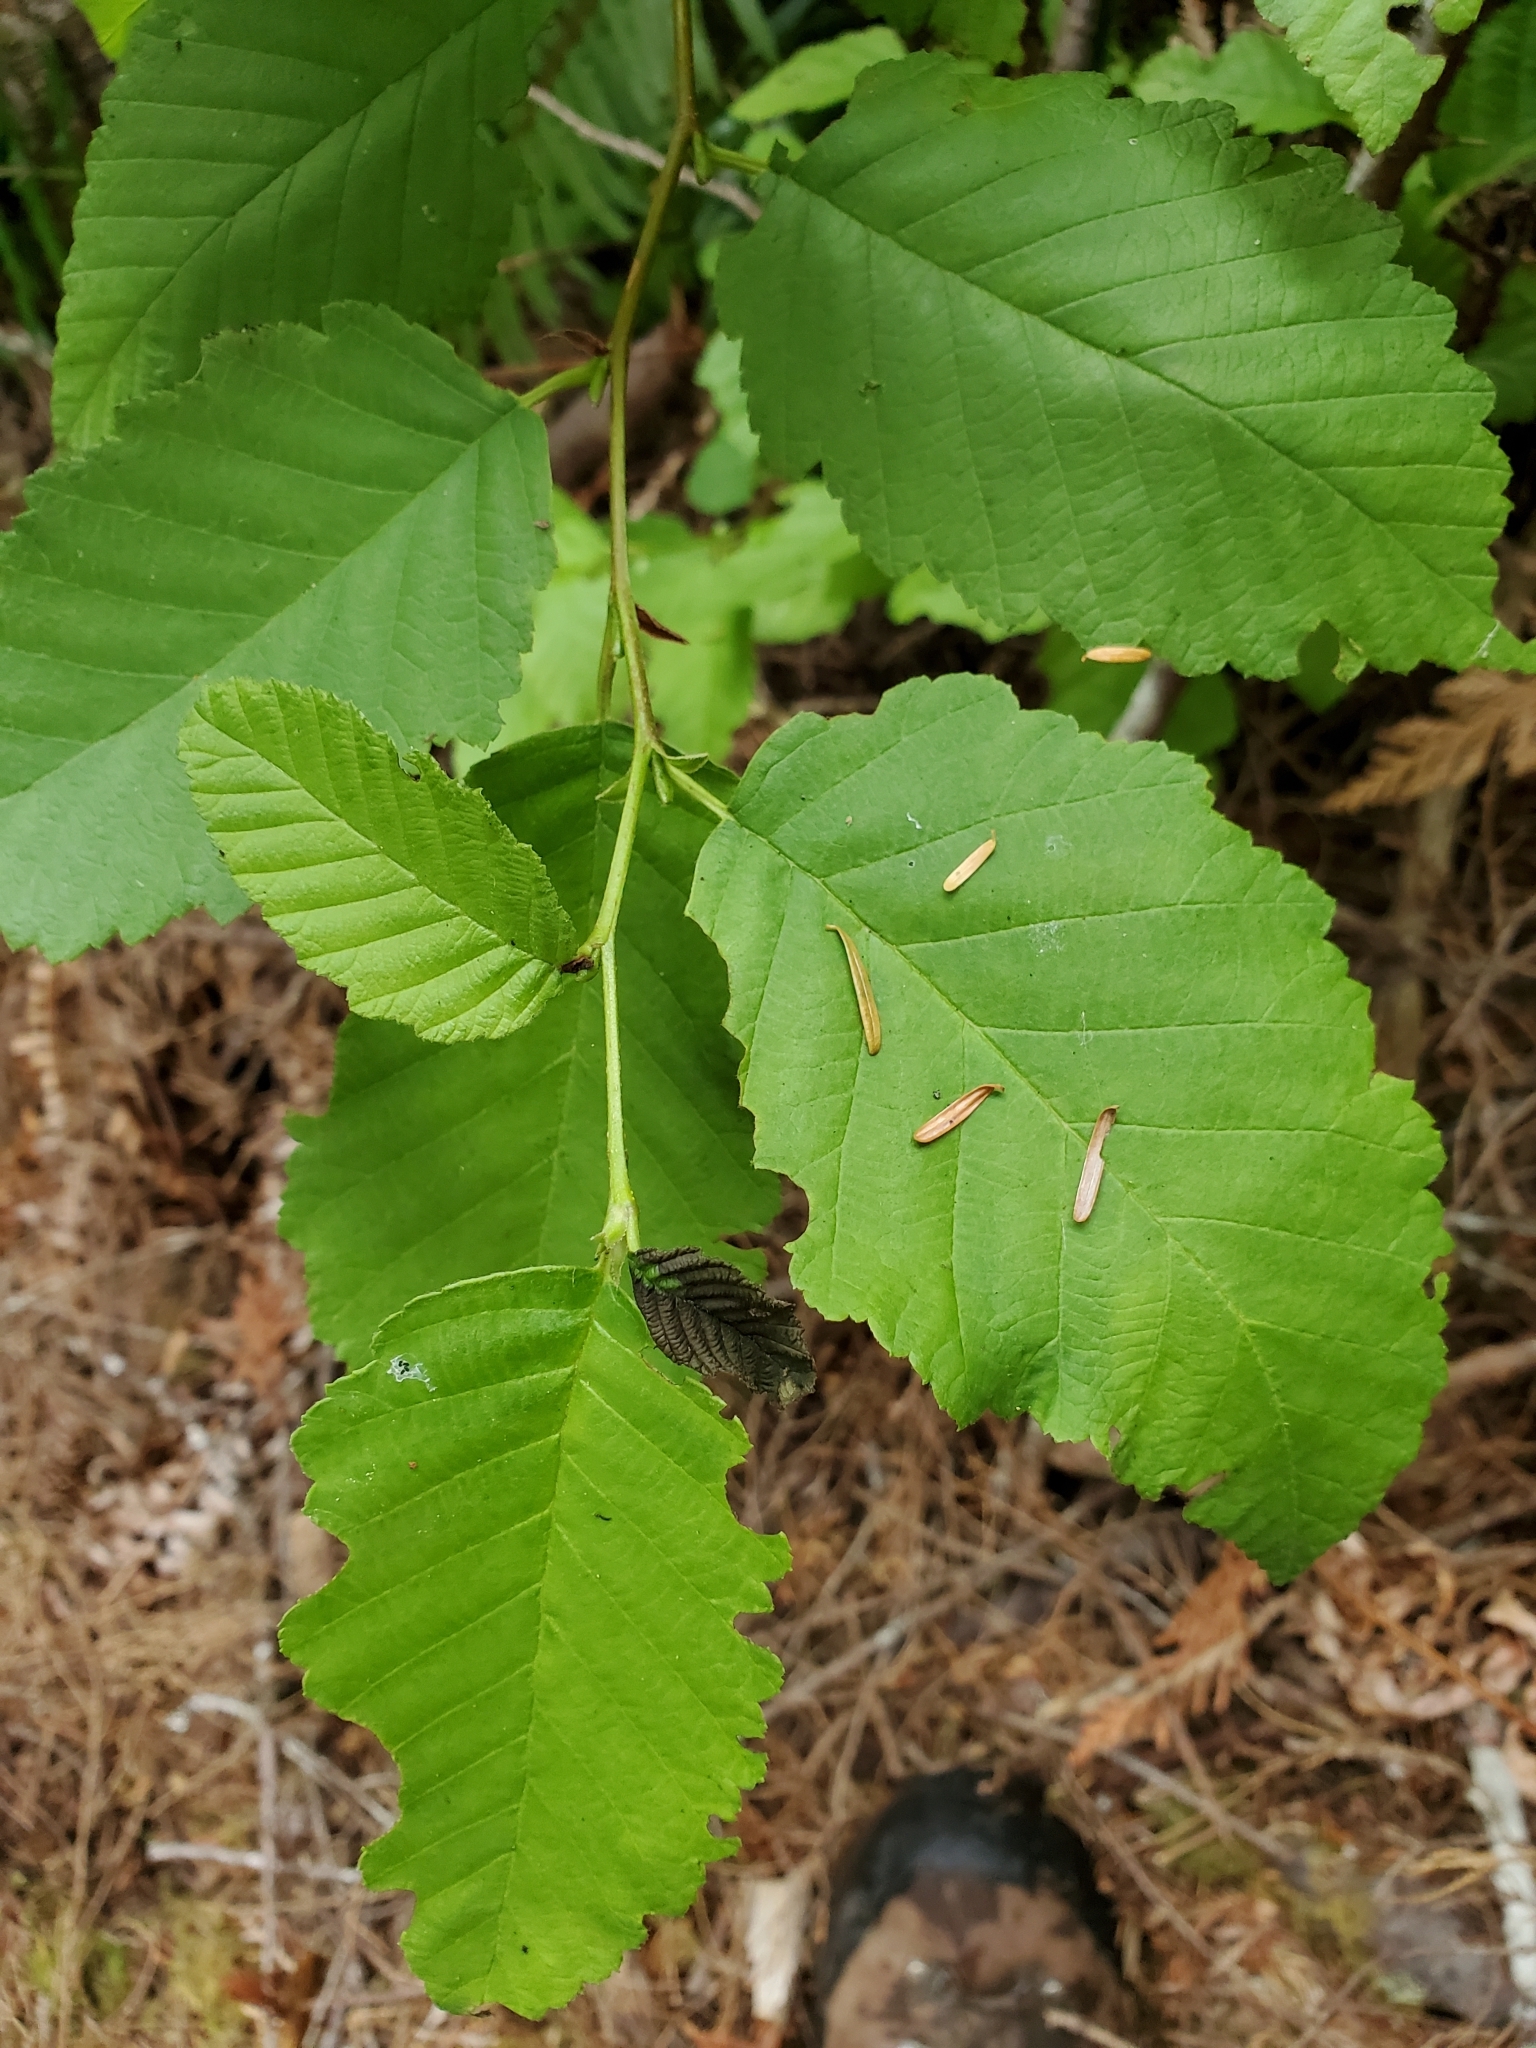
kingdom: Plantae
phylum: Tracheophyta
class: Magnoliopsida
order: Fagales
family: Betulaceae
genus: Alnus
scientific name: Alnus rubra
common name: Red alder
